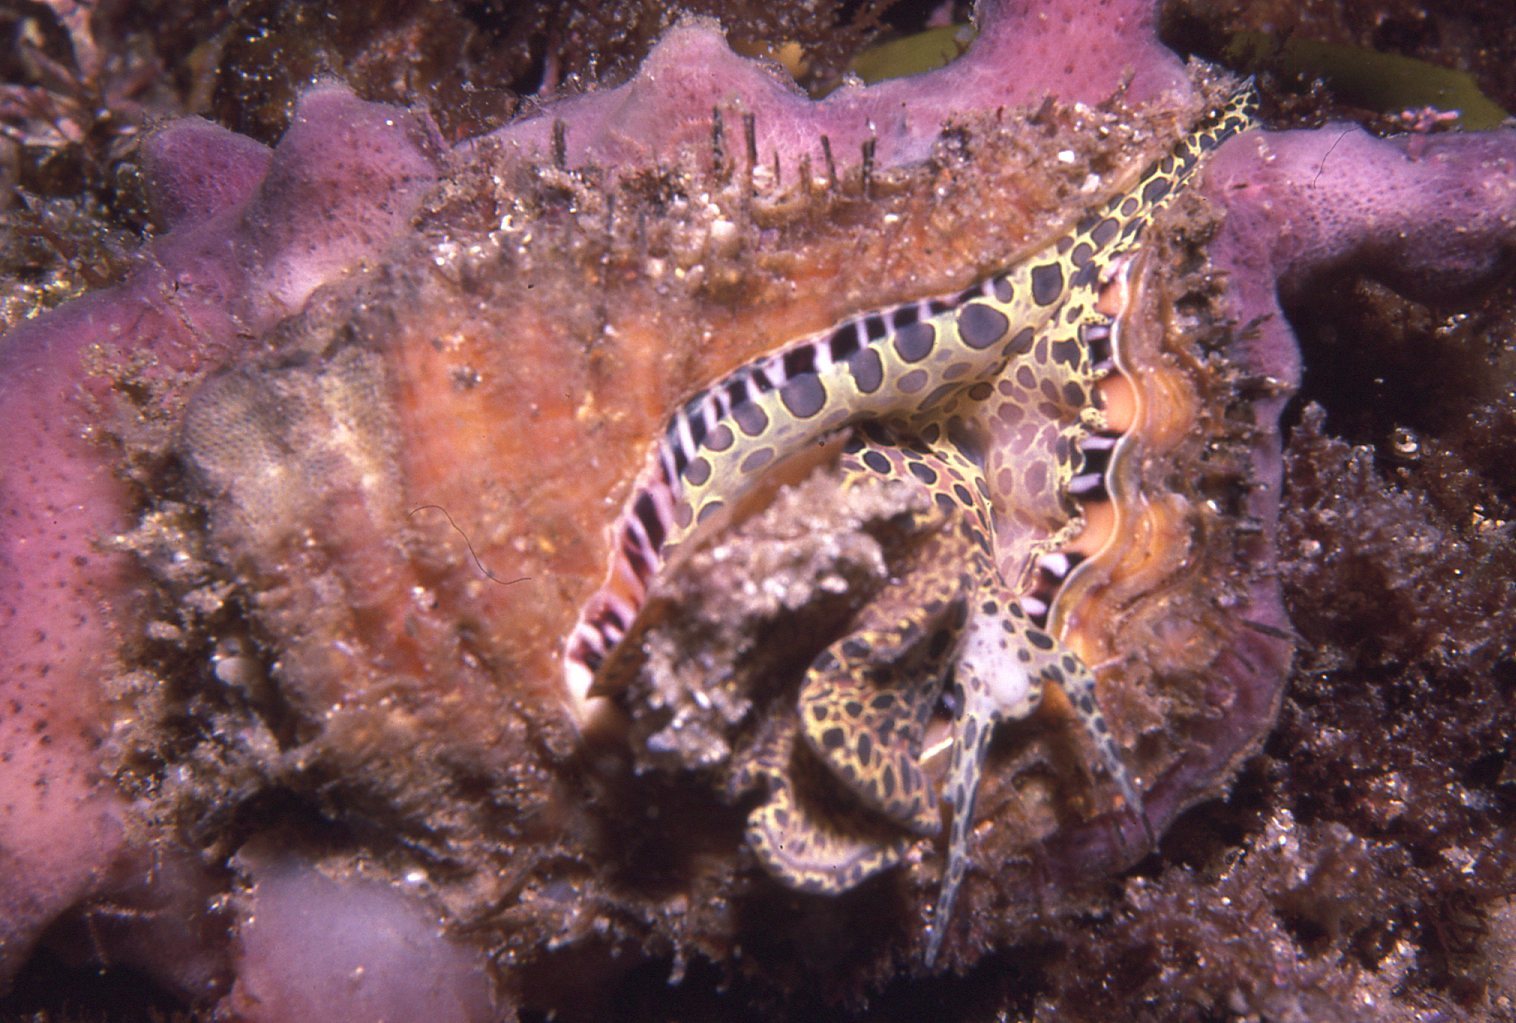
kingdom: Animalia
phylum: Mollusca
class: Gastropoda
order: Littorinimorpha
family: Cymatiidae
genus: Monoplex
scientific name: Monoplex parthenopeus
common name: Giant triton
